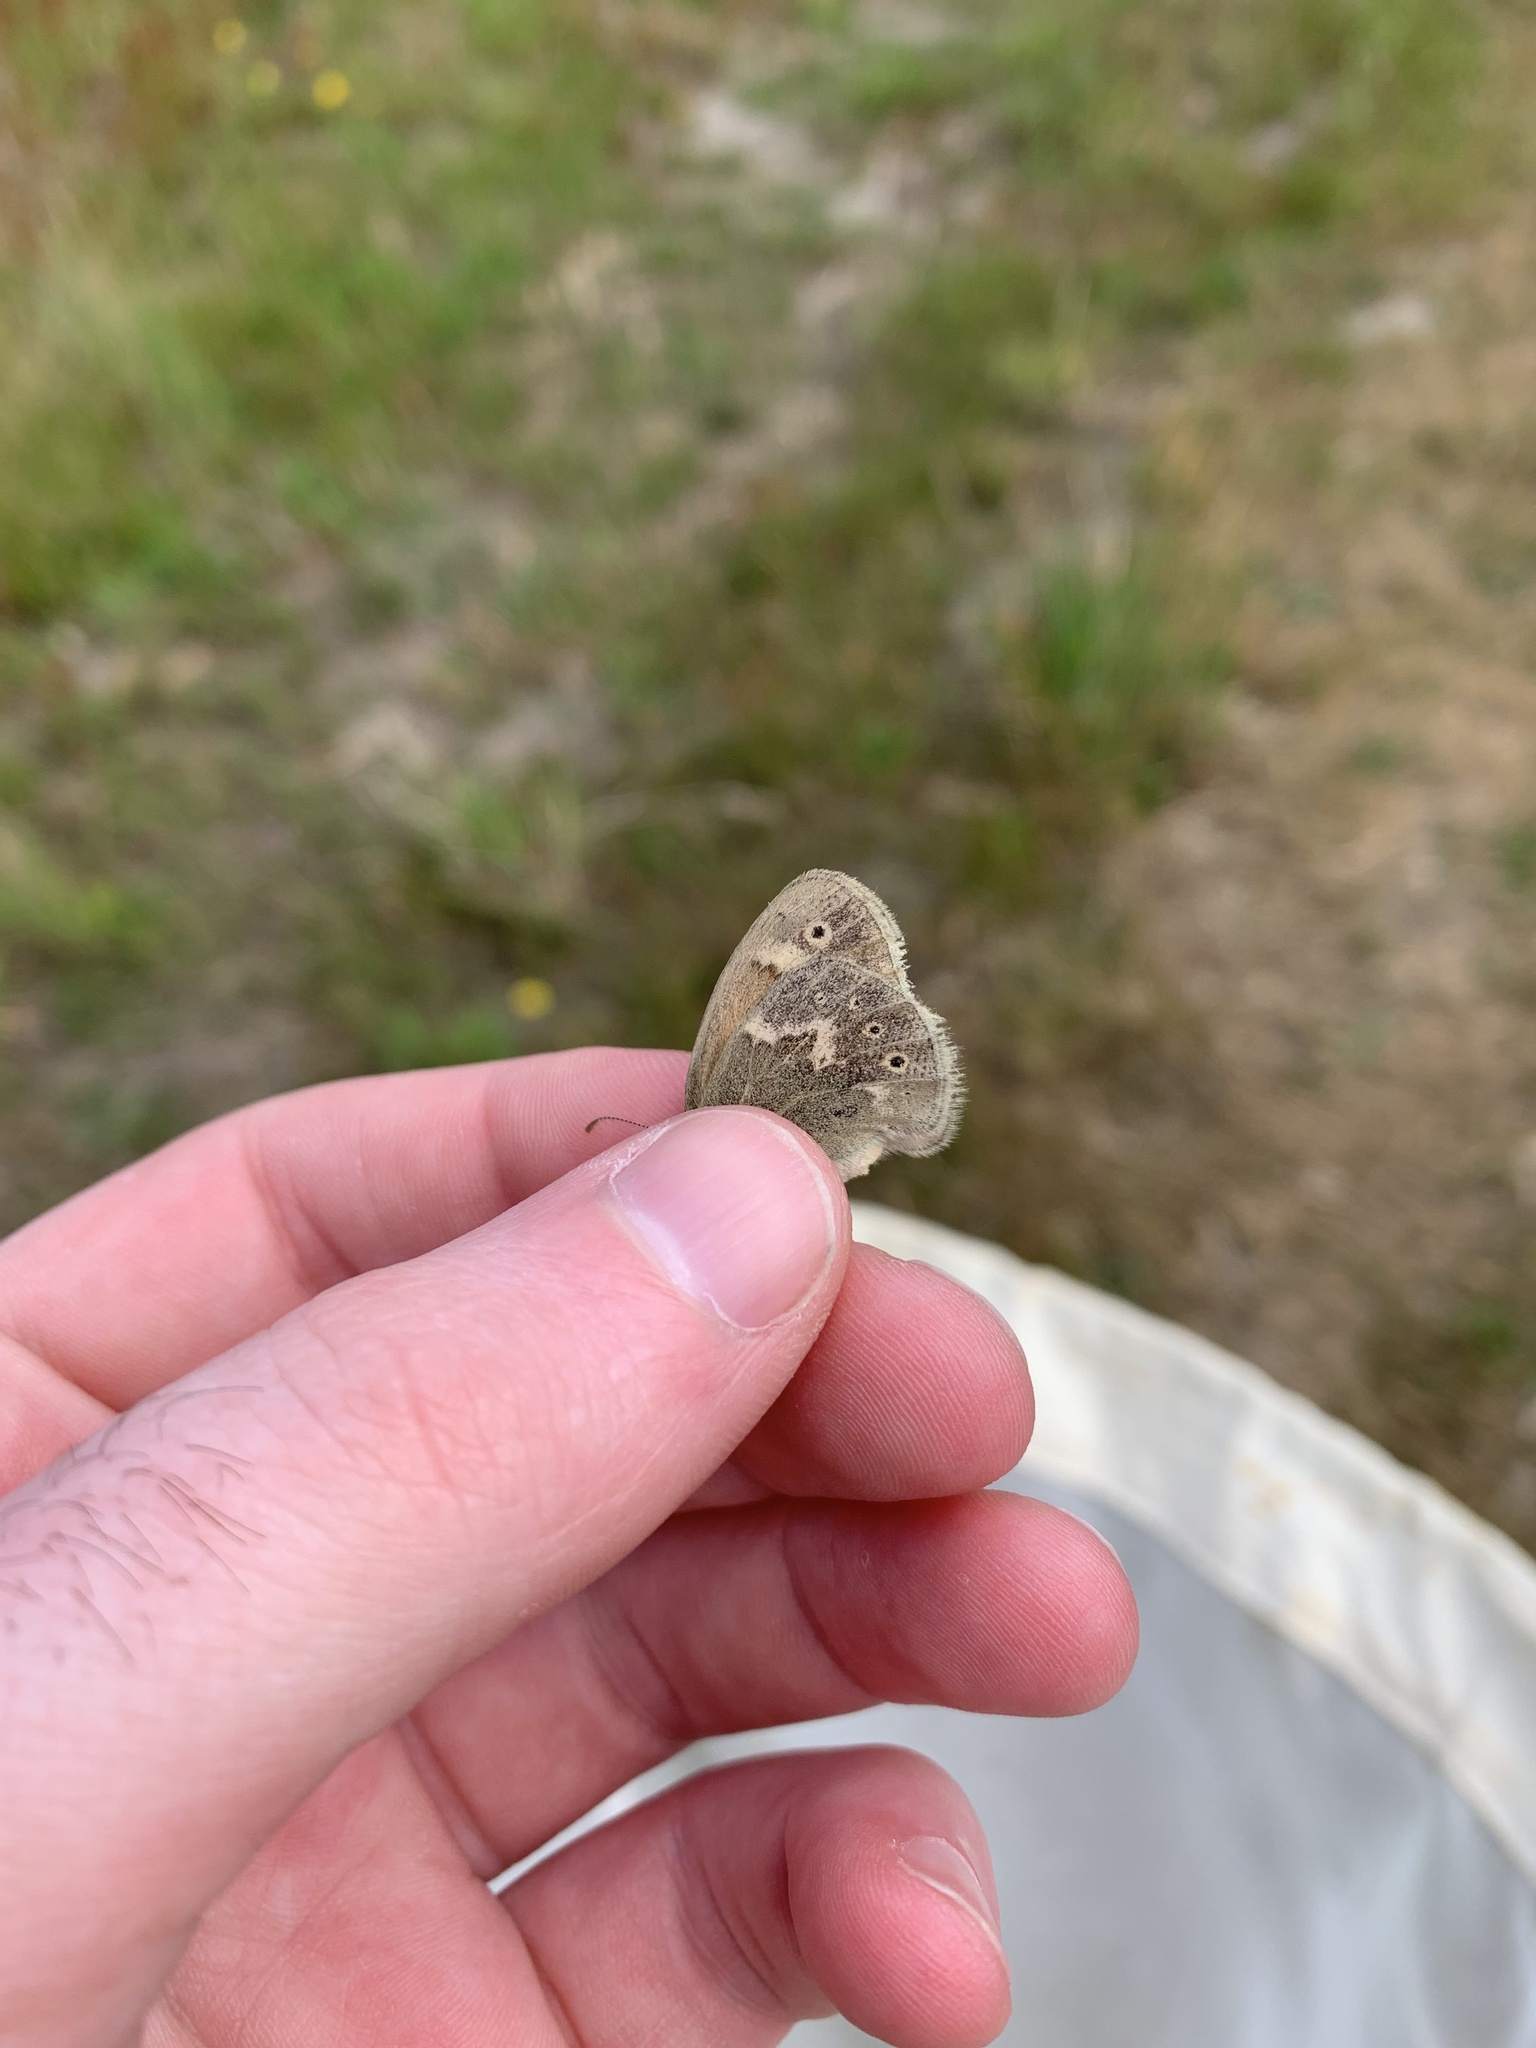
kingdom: Animalia
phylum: Arthropoda
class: Insecta
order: Lepidoptera
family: Nymphalidae
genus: Coenonympha
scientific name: Coenonympha california
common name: Common ringlet
